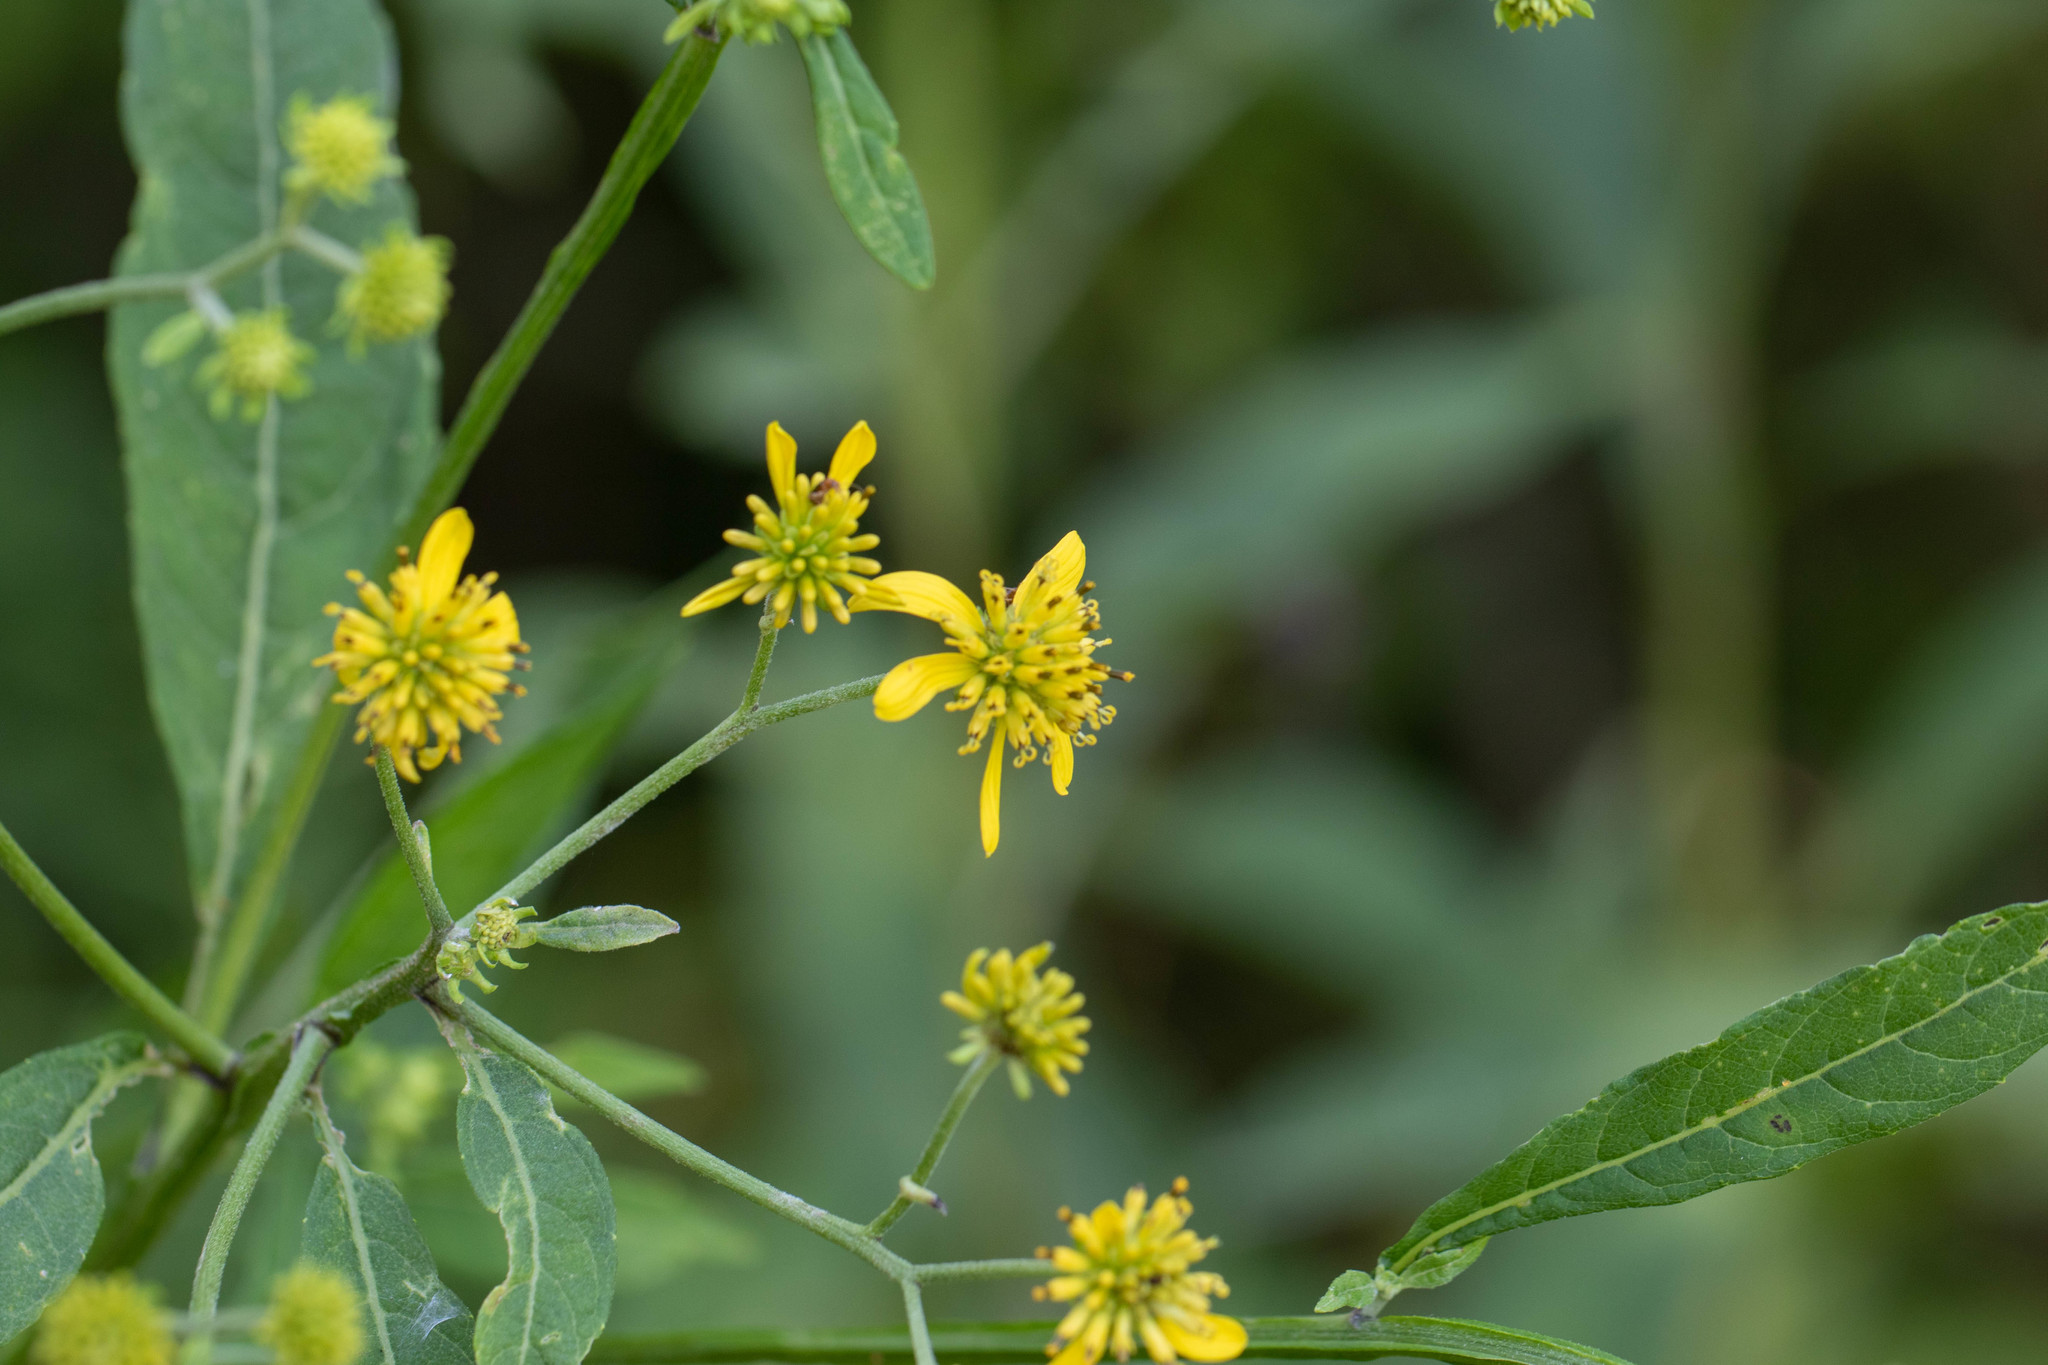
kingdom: Plantae
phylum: Tracheophyta
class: Magnoliopsida
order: Asterales
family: Asteraceae
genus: Verbesina
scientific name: Verbesina alternifolia
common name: Wingstem
